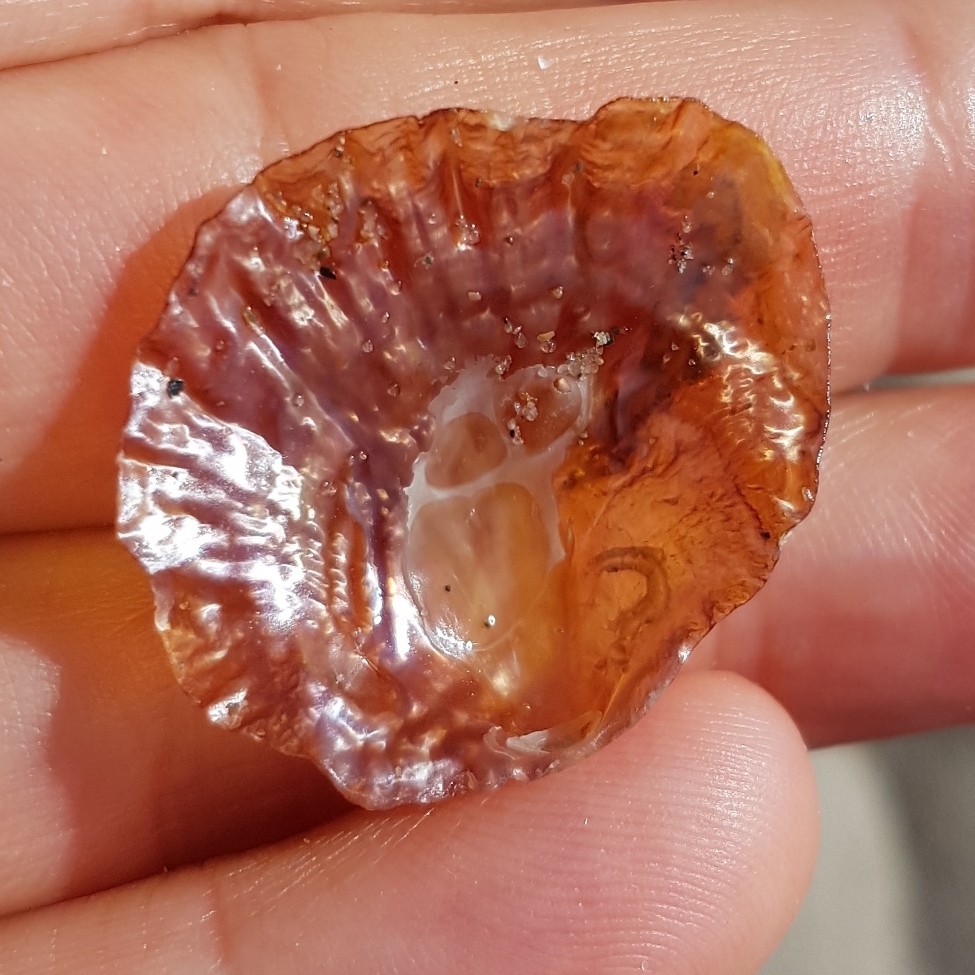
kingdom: Animalia
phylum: Mollusca
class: Bivalvia
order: Pectinida
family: Anomiidae
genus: Anomia
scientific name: Anomia ephippium
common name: Saddle oyster
